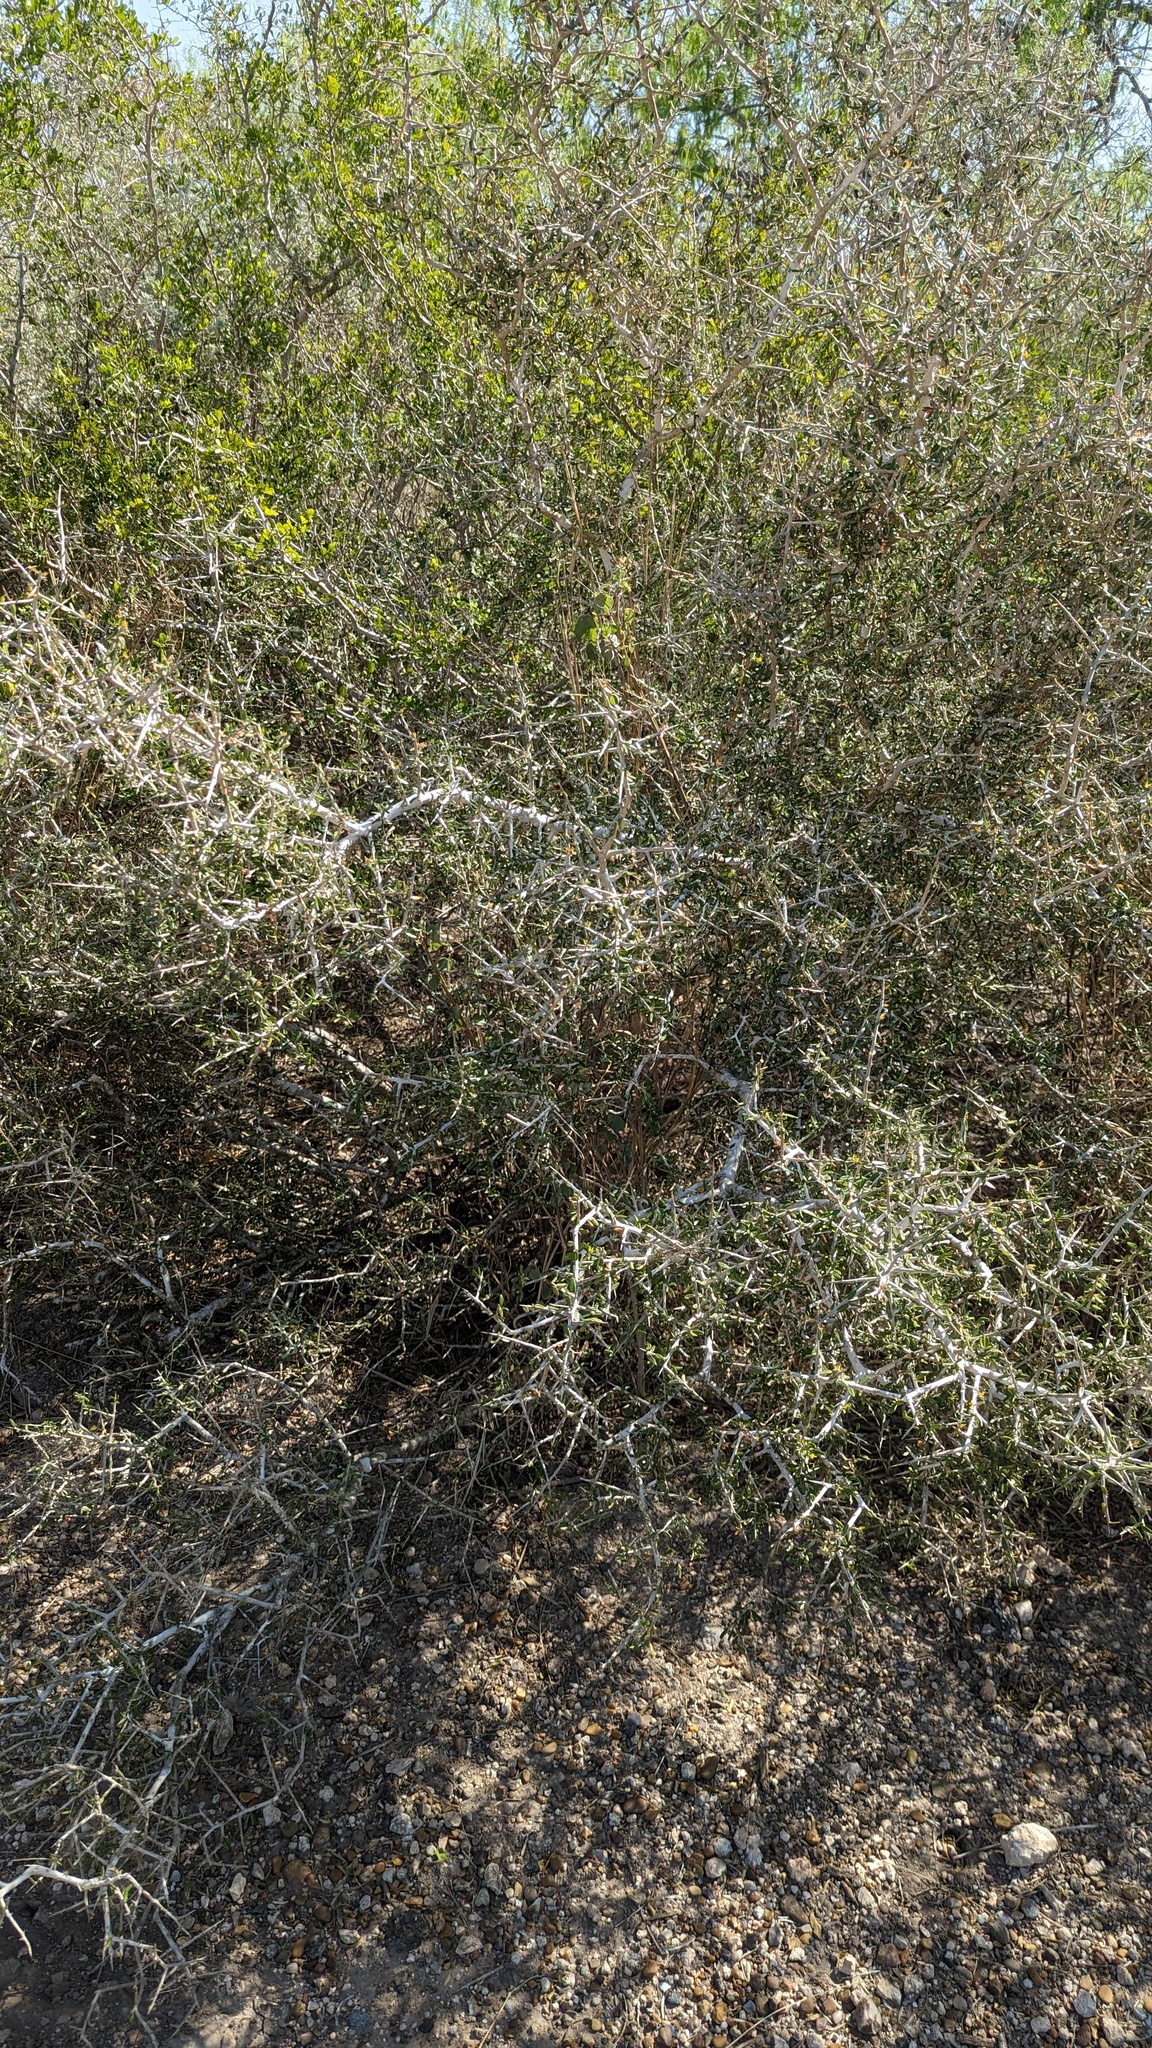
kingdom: Plantae
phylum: Tracheophyta
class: Magnoliopsida
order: Sapindales
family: Simaroubaceae
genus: Castela
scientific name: Castela erecta
